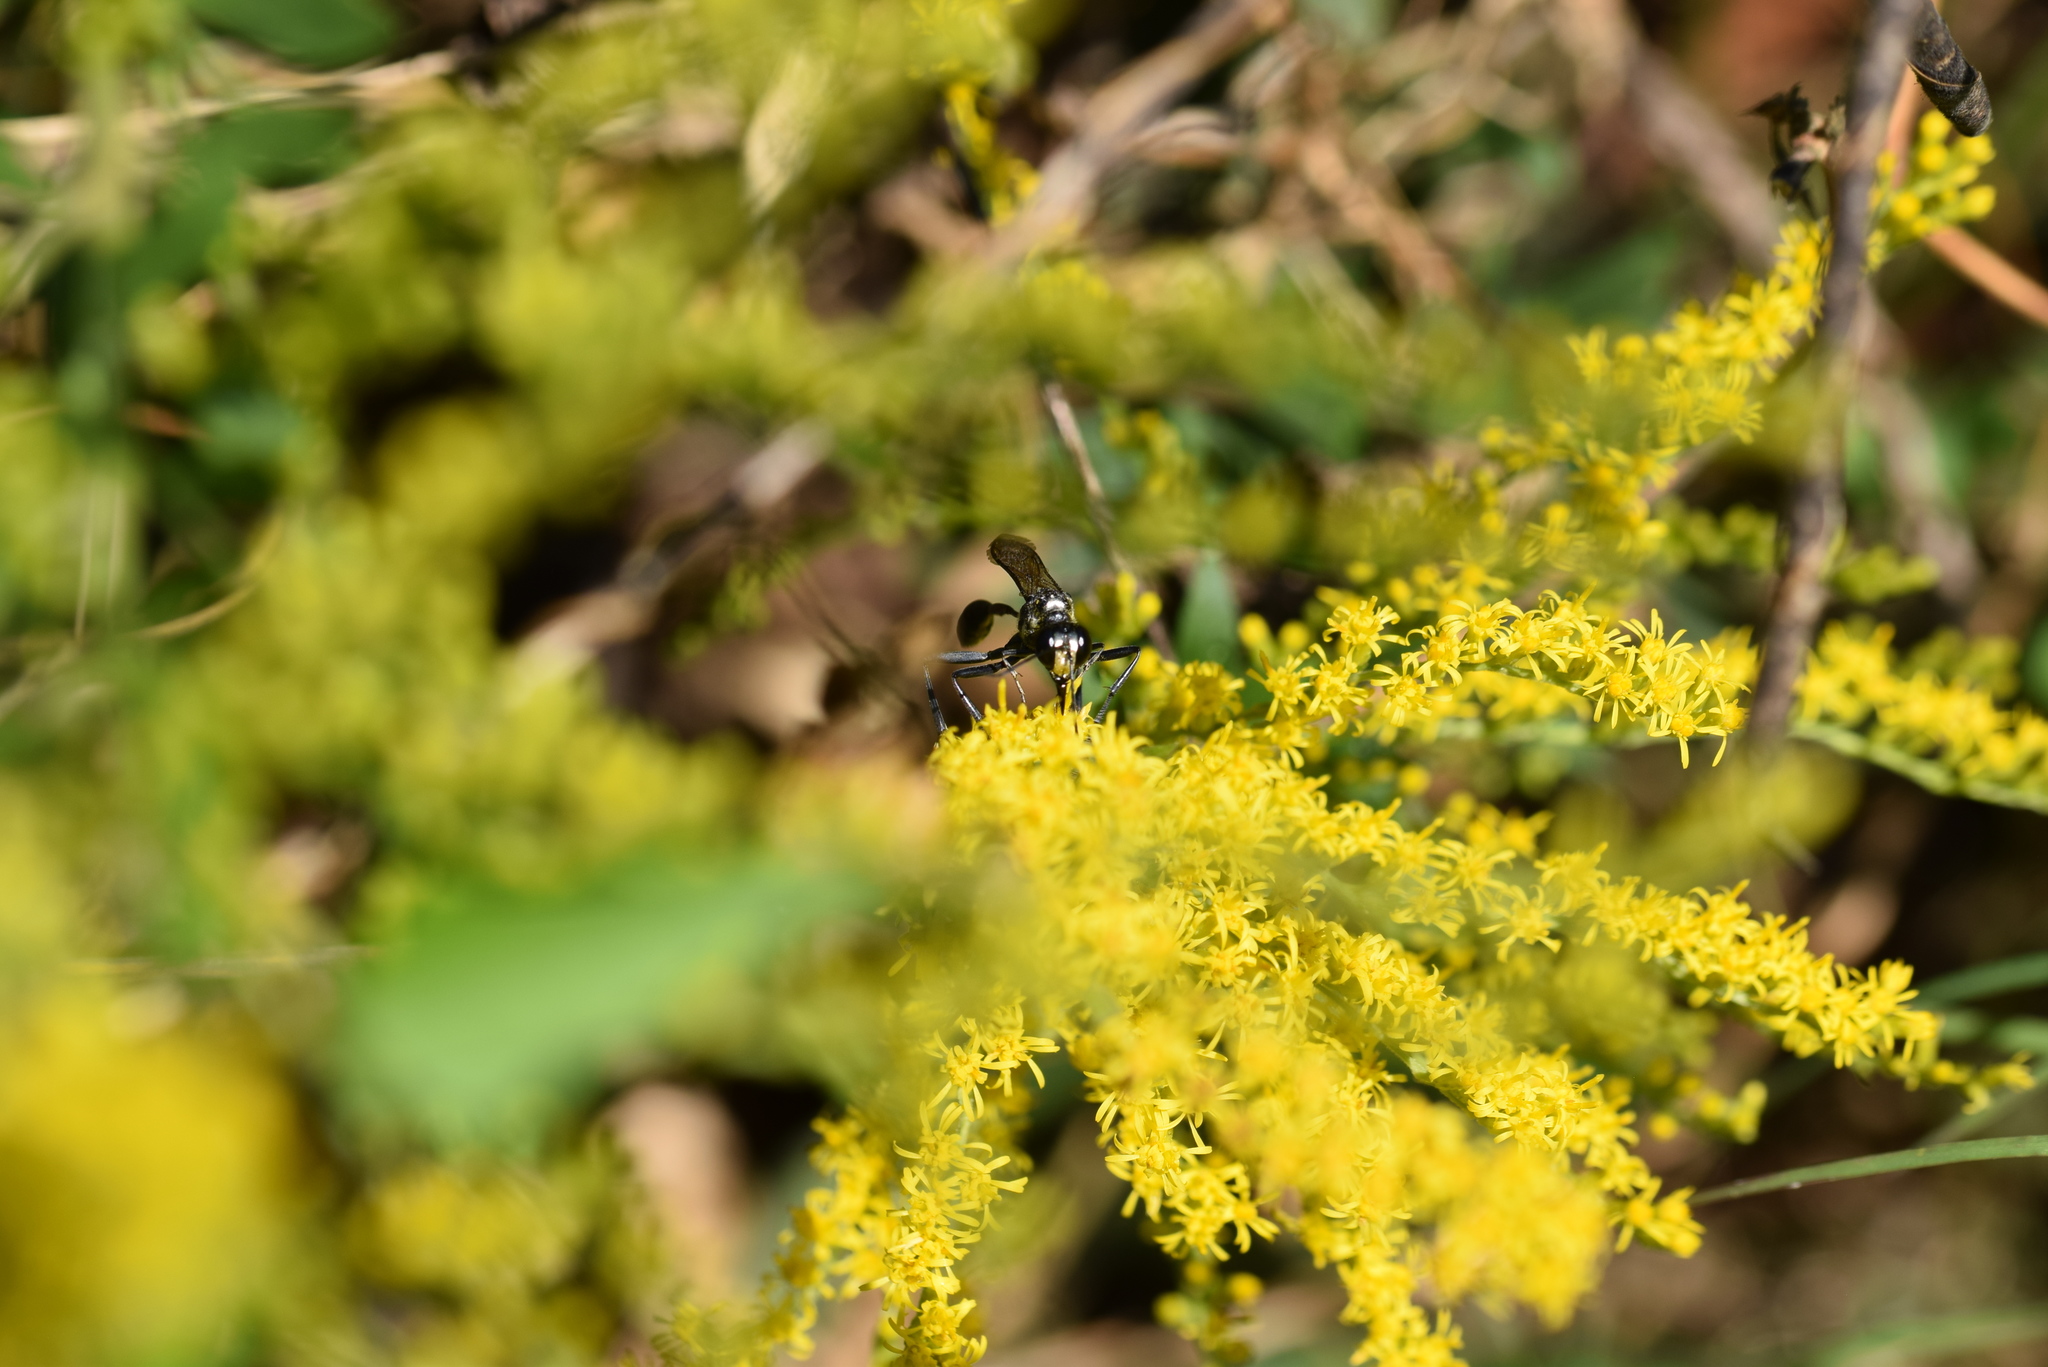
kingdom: Animalia
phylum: Arthropoda
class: Insecta
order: Hymenoptera
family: Sphecidae
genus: Eremnophila
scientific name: Eremnophila aureonotata
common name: Gold-marked thread-waisted wasp
